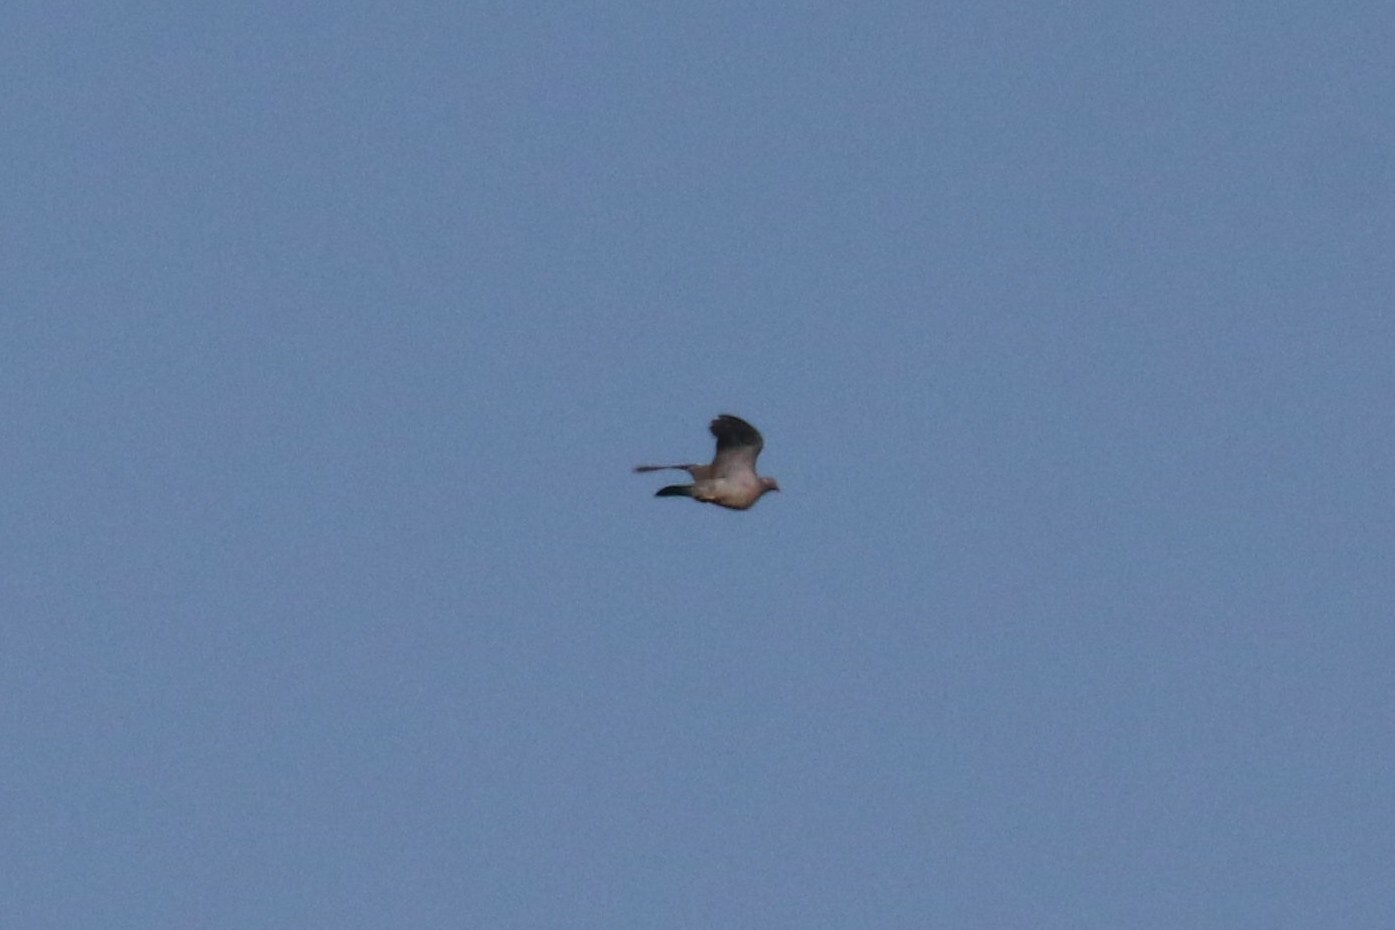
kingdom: Animalia
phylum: Chordata
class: Aves
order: Columbiformes
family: Columbidae
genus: Columba
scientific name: Columba palumbus
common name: Common wood pigeon
